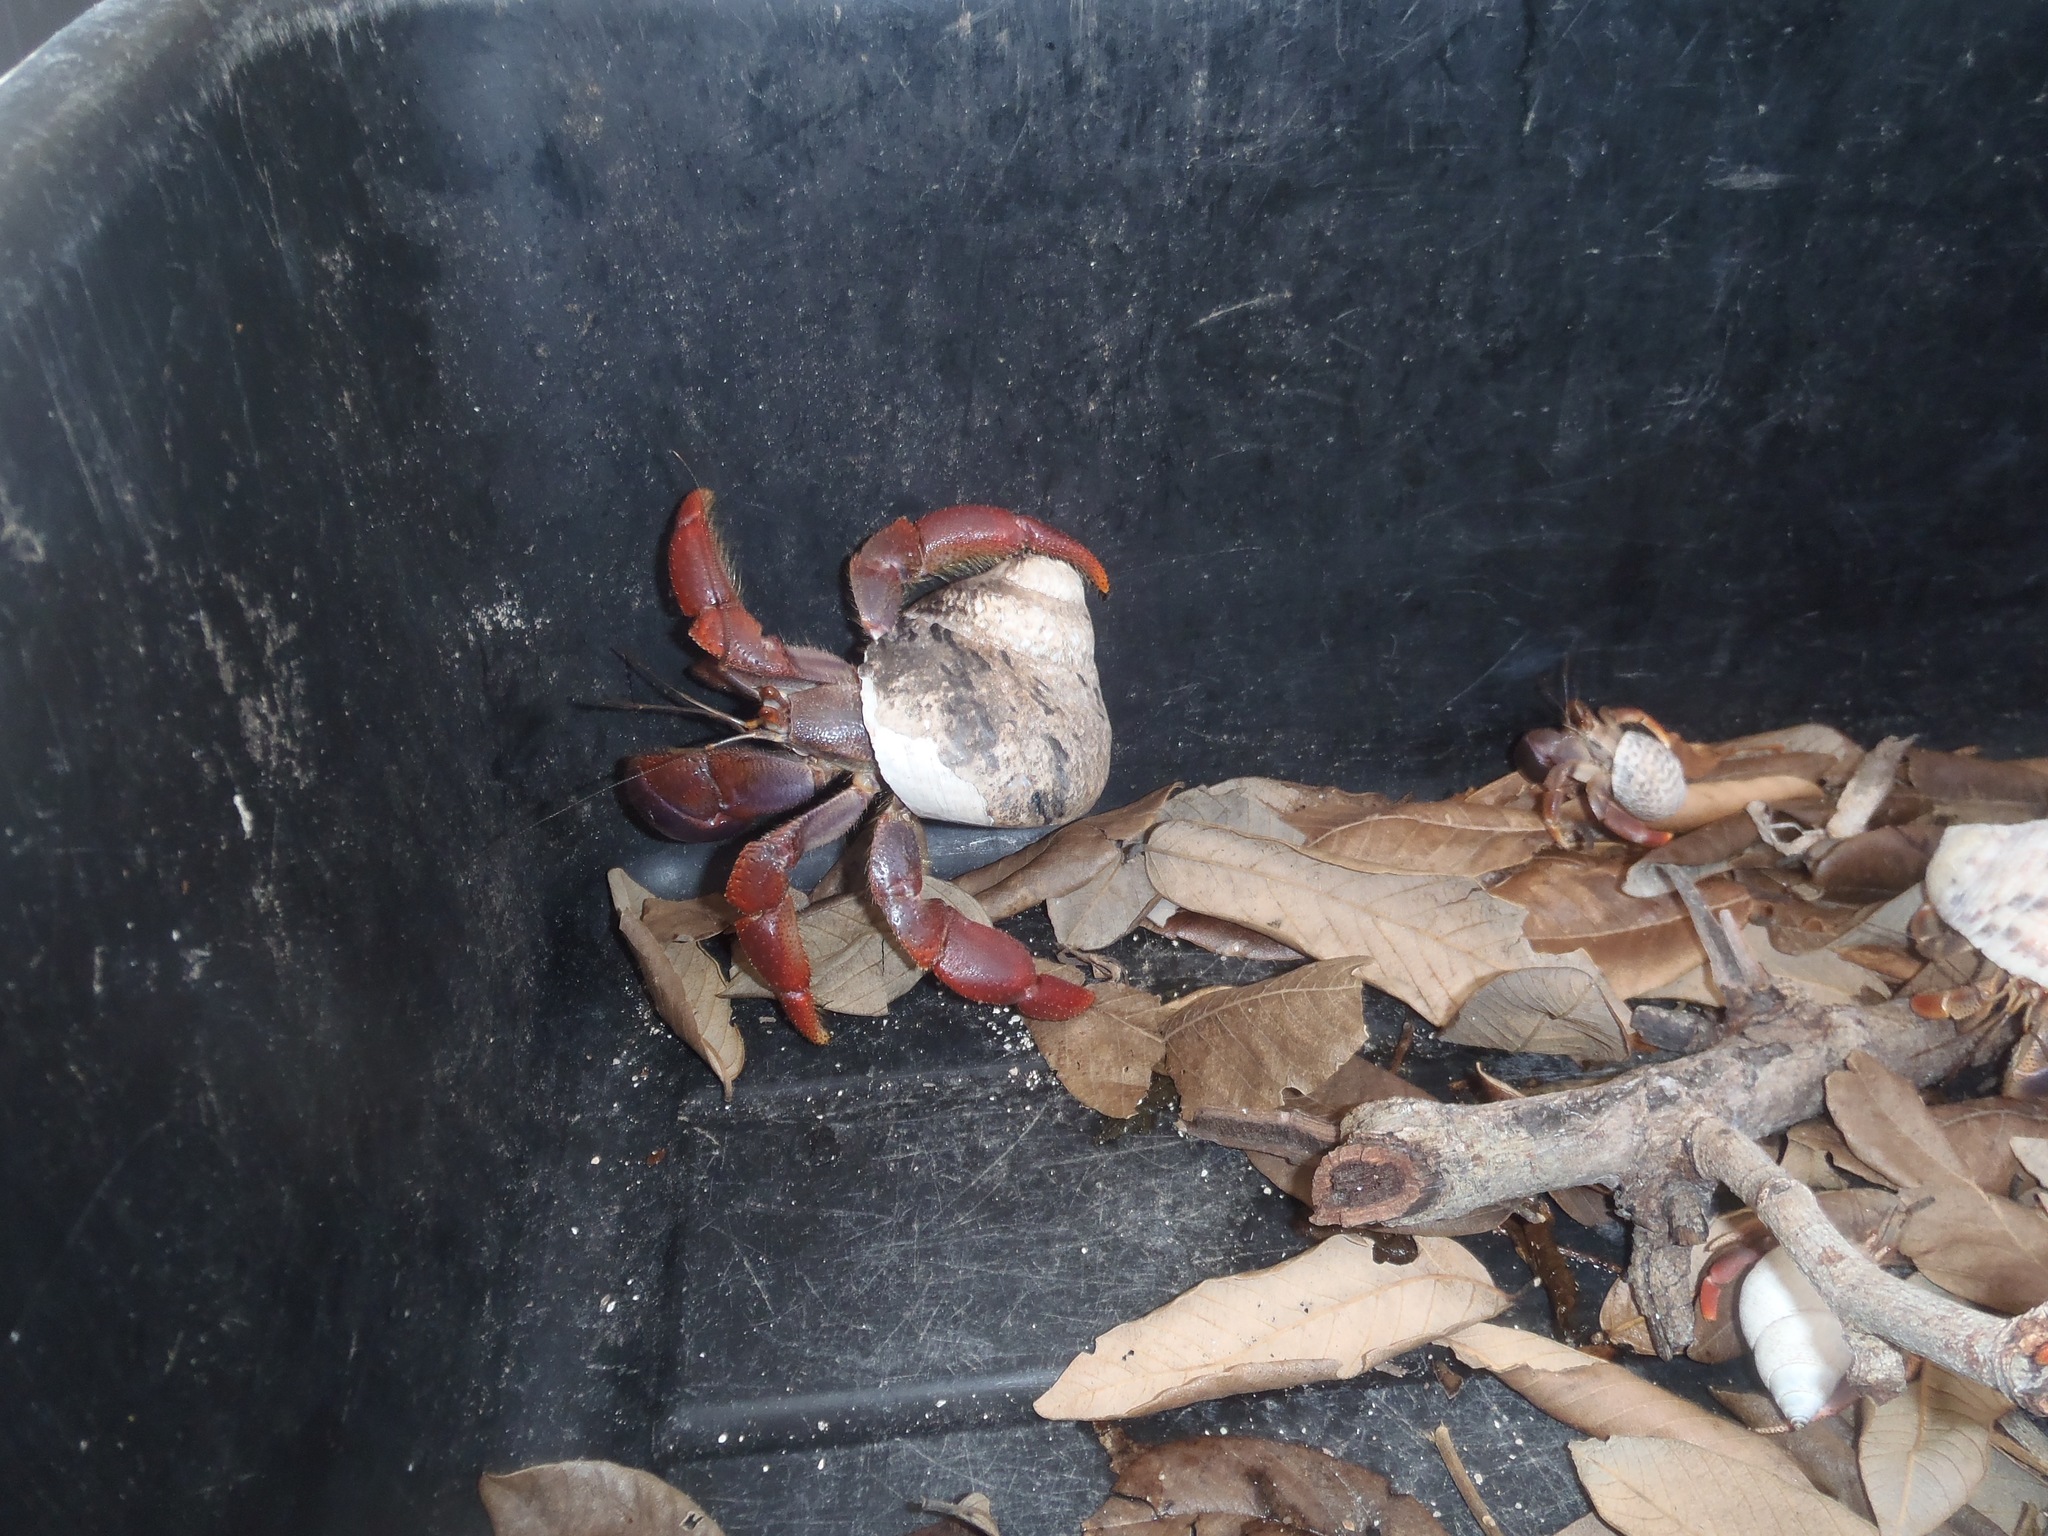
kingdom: Animalia
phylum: Arthropoda
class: Malacostraca
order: Decapoda
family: Coenobitidae
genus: Coenobita
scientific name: Coenobita clypeatus
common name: Caribbean hermit crab
